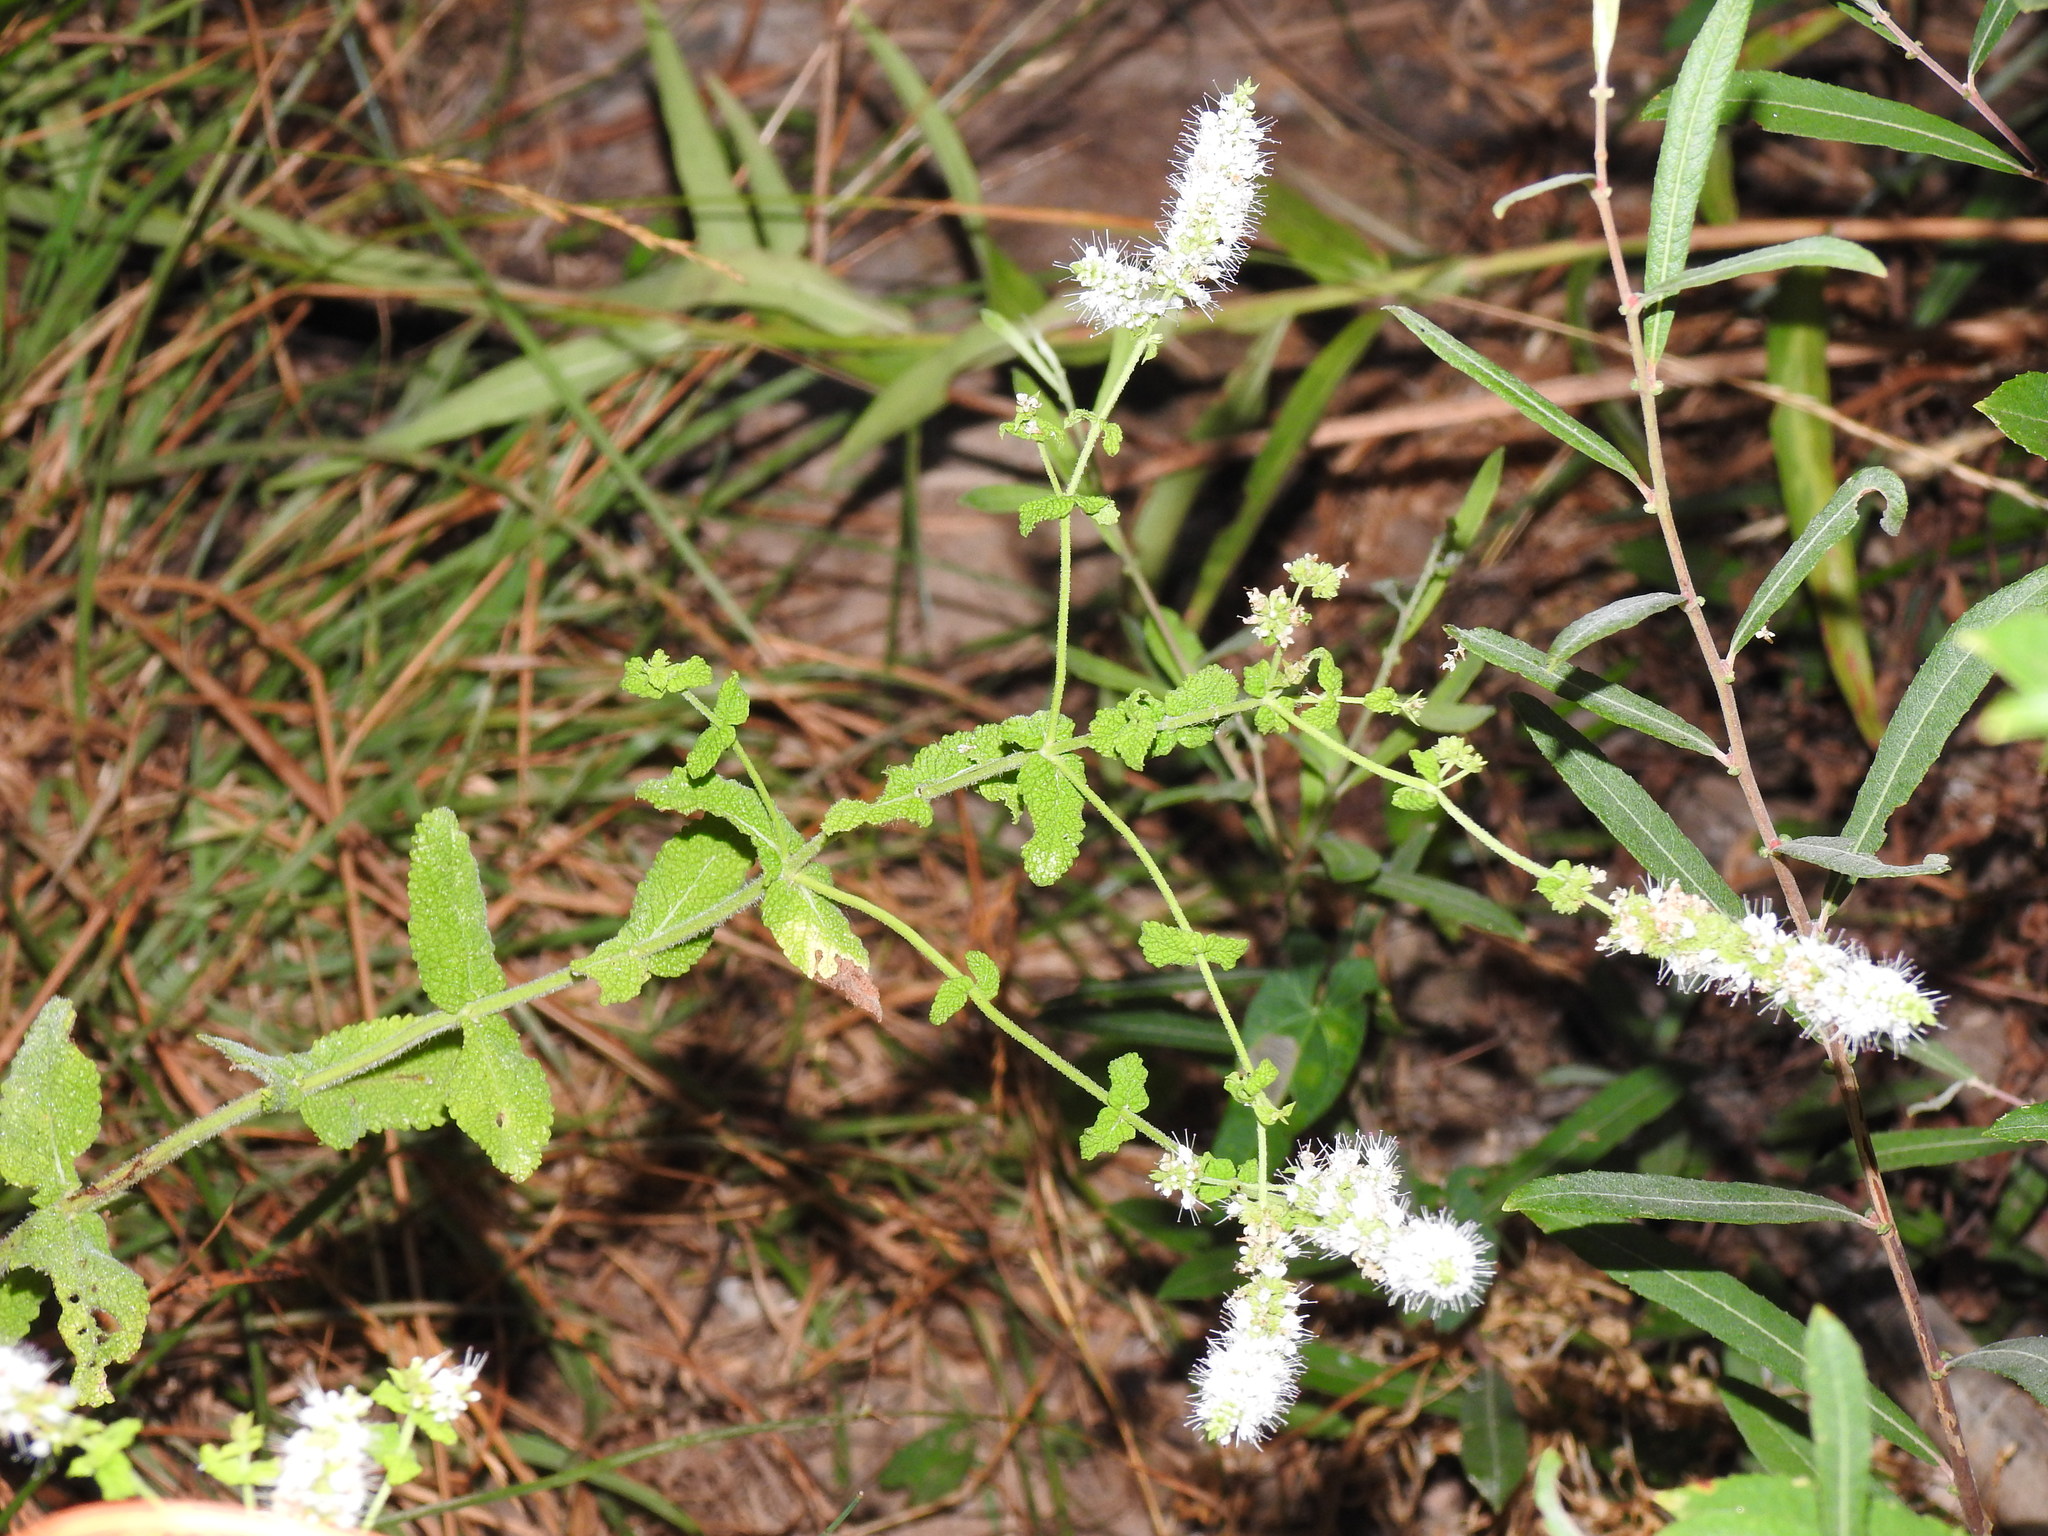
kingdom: Plantae
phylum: Tracheophyta
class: Magnoliopsida
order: Lamiales
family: Lamiaceae
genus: Mentha
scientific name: Mentha suaveolens
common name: Apple mint
